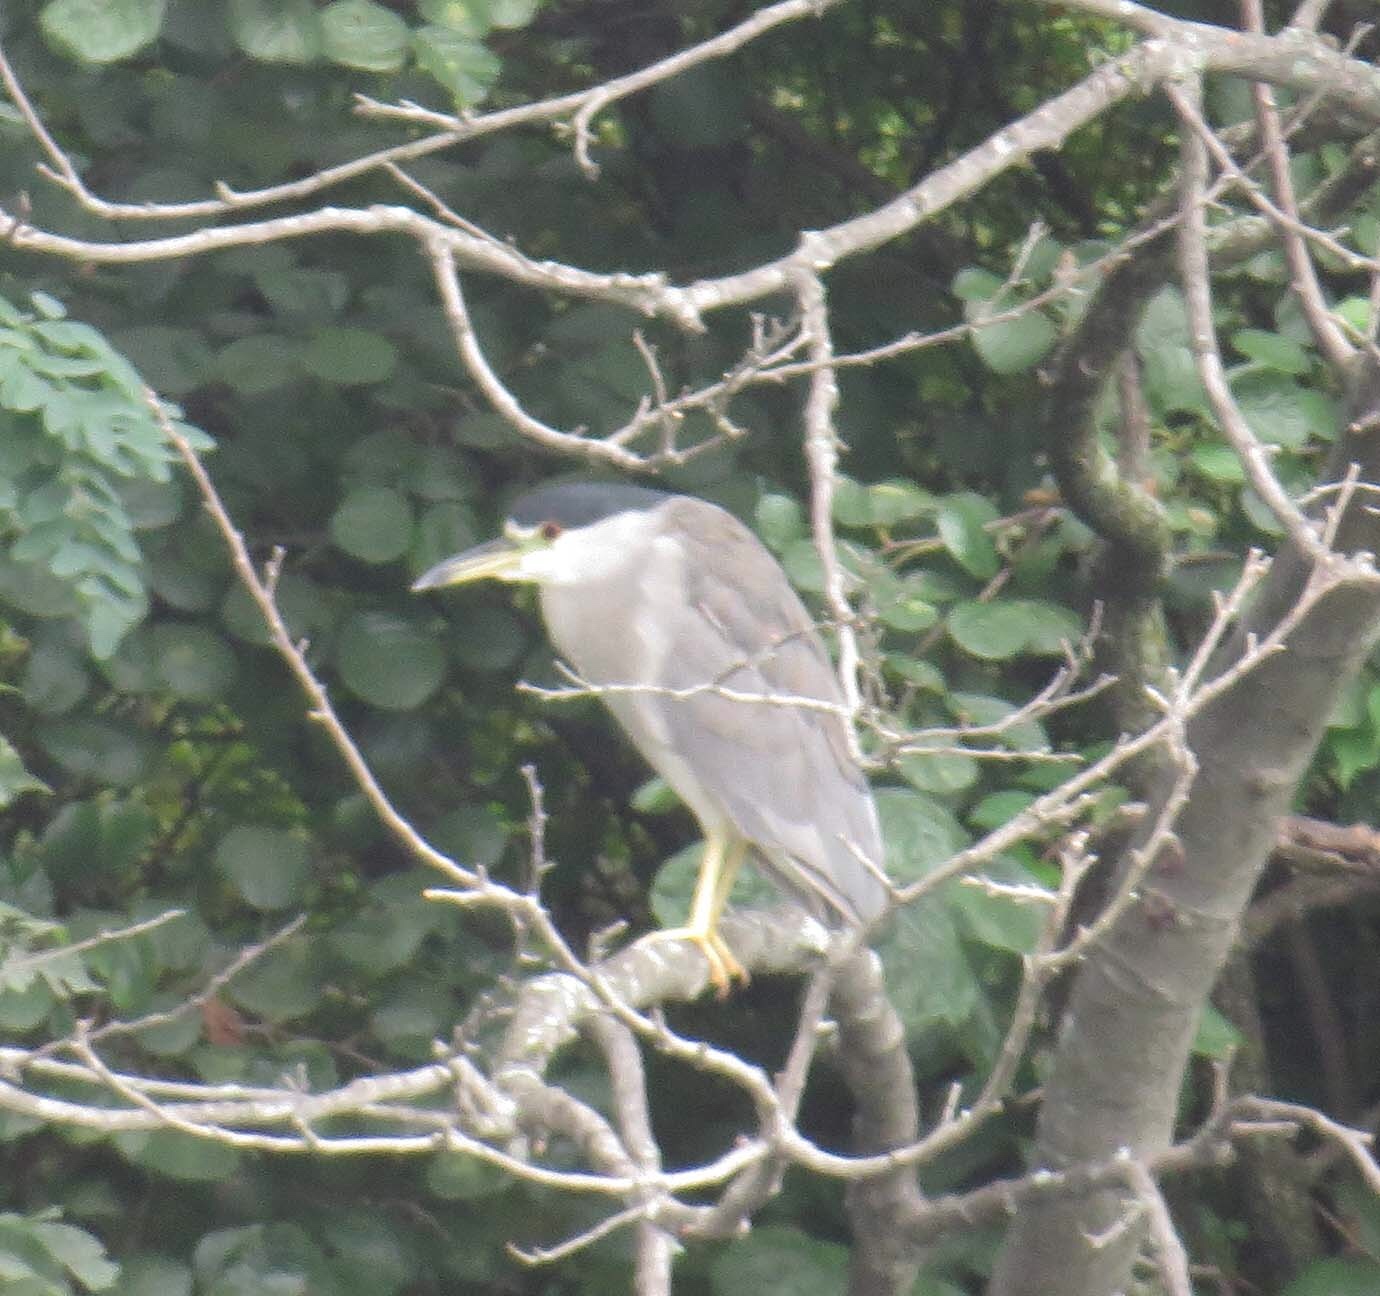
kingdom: Animalia
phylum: Chordata
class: Aves
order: Pelecaniformes
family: Ardeidae
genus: Nycticorax
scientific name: Nycticorax nycticorax
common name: Black-crowned night heron
